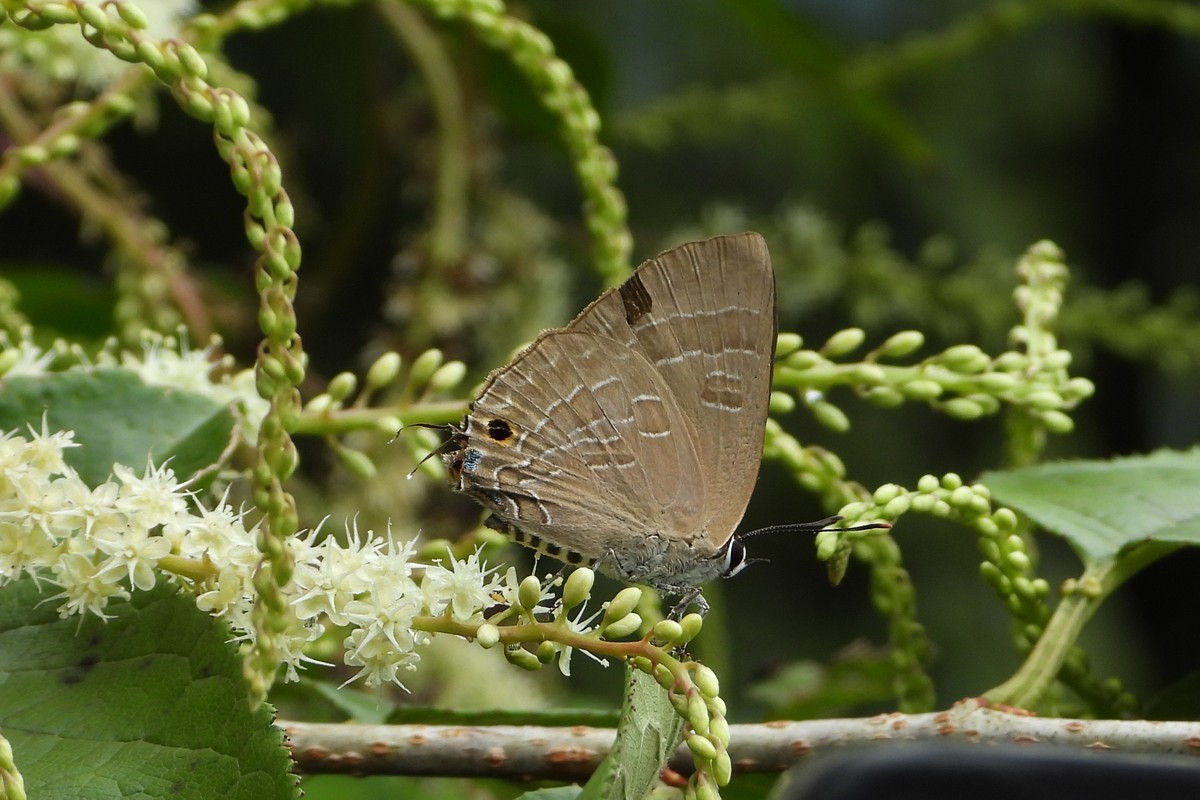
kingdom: Animalia
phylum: Arthropoda
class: Insecta
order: Lepidoptera
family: Lycaenidae
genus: Deudorix
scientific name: Deudorix epijarbas
